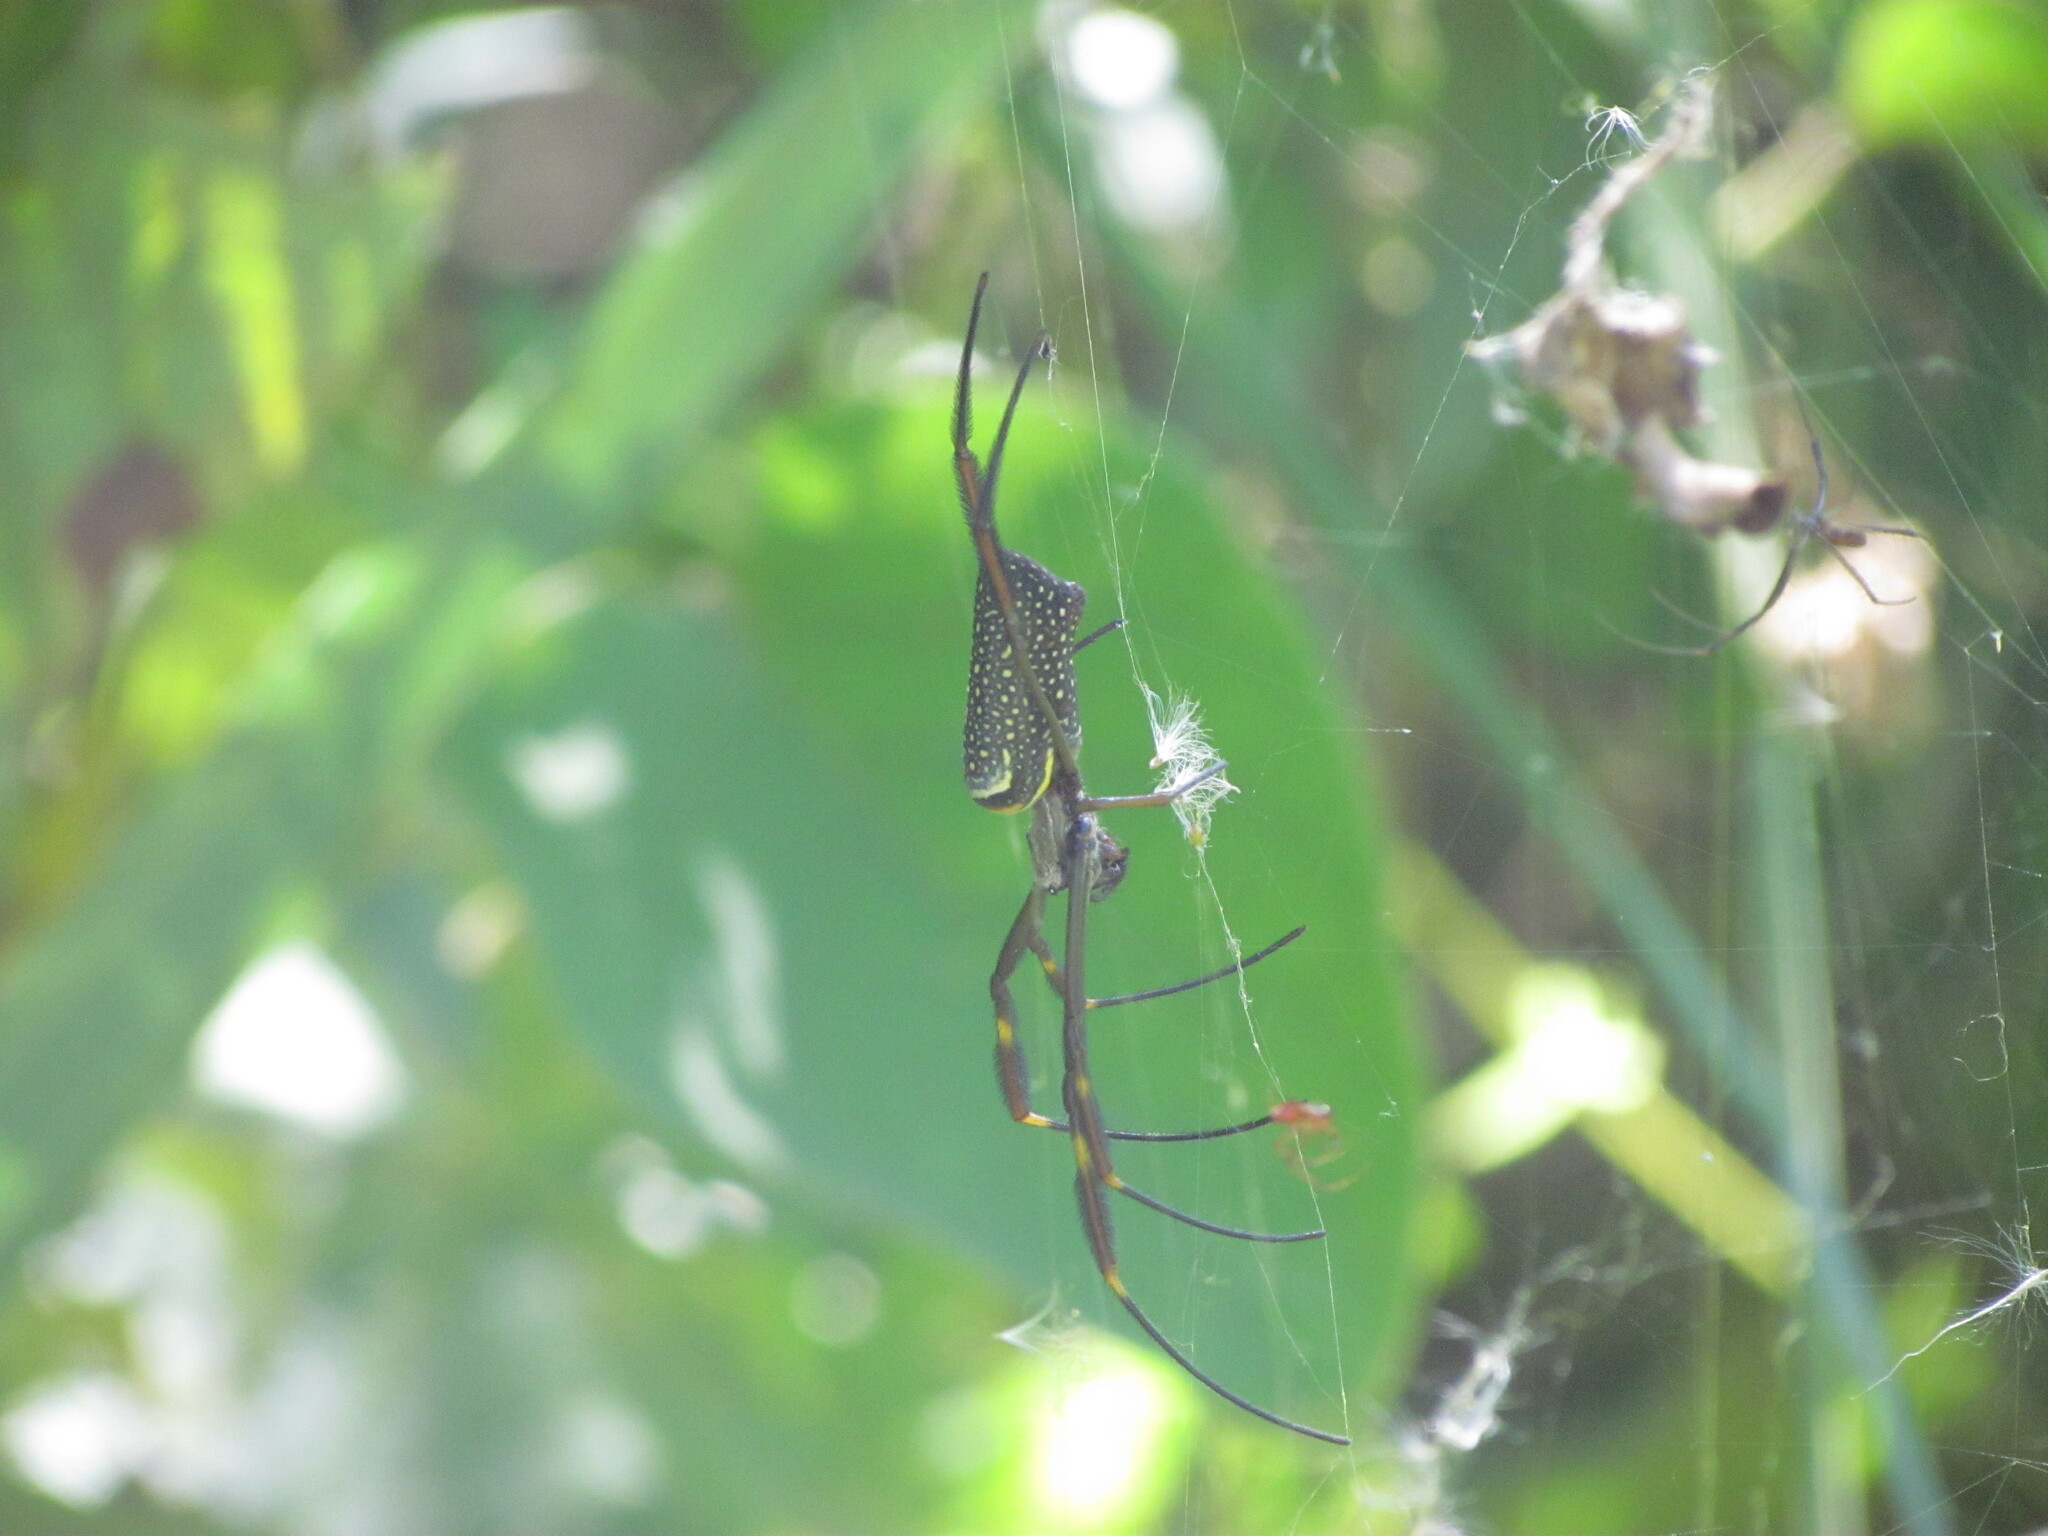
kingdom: Animalia
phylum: Arthropoda
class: Arachnida
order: Araneae
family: Araneidae
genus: Trichonephila
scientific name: Trichonephila clavipes
